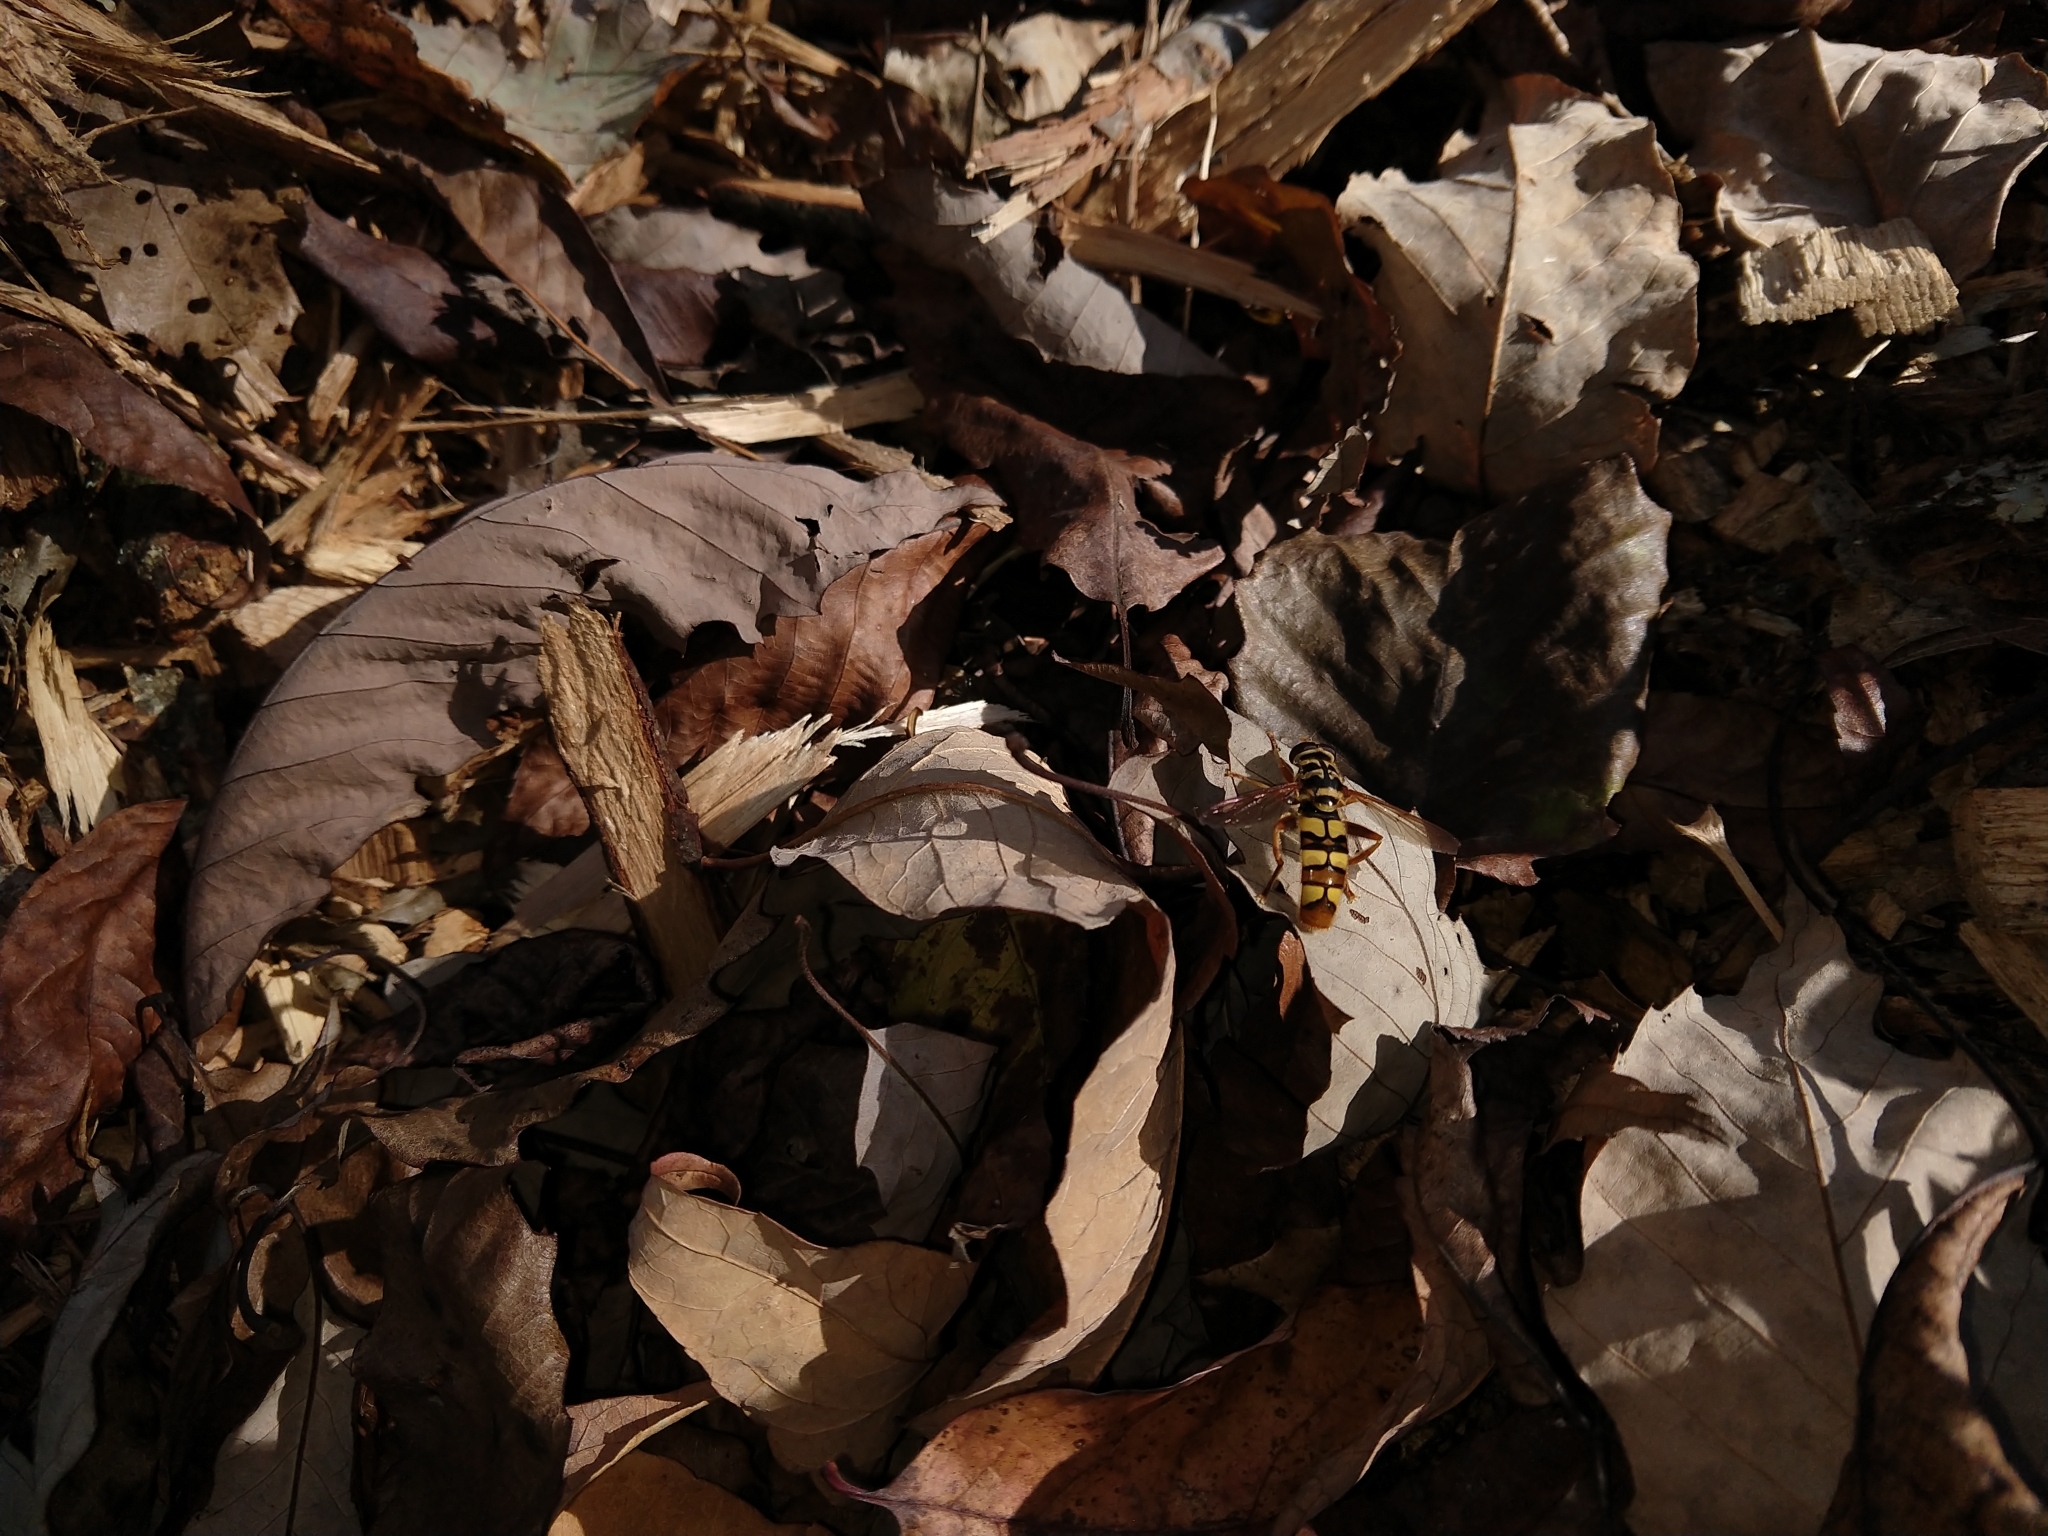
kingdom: Animalia
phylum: Arthropoda
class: Insecta
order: Diptera
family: Syrphidae
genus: Milesia
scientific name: Milesia virginiensis
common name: Virginia giant
